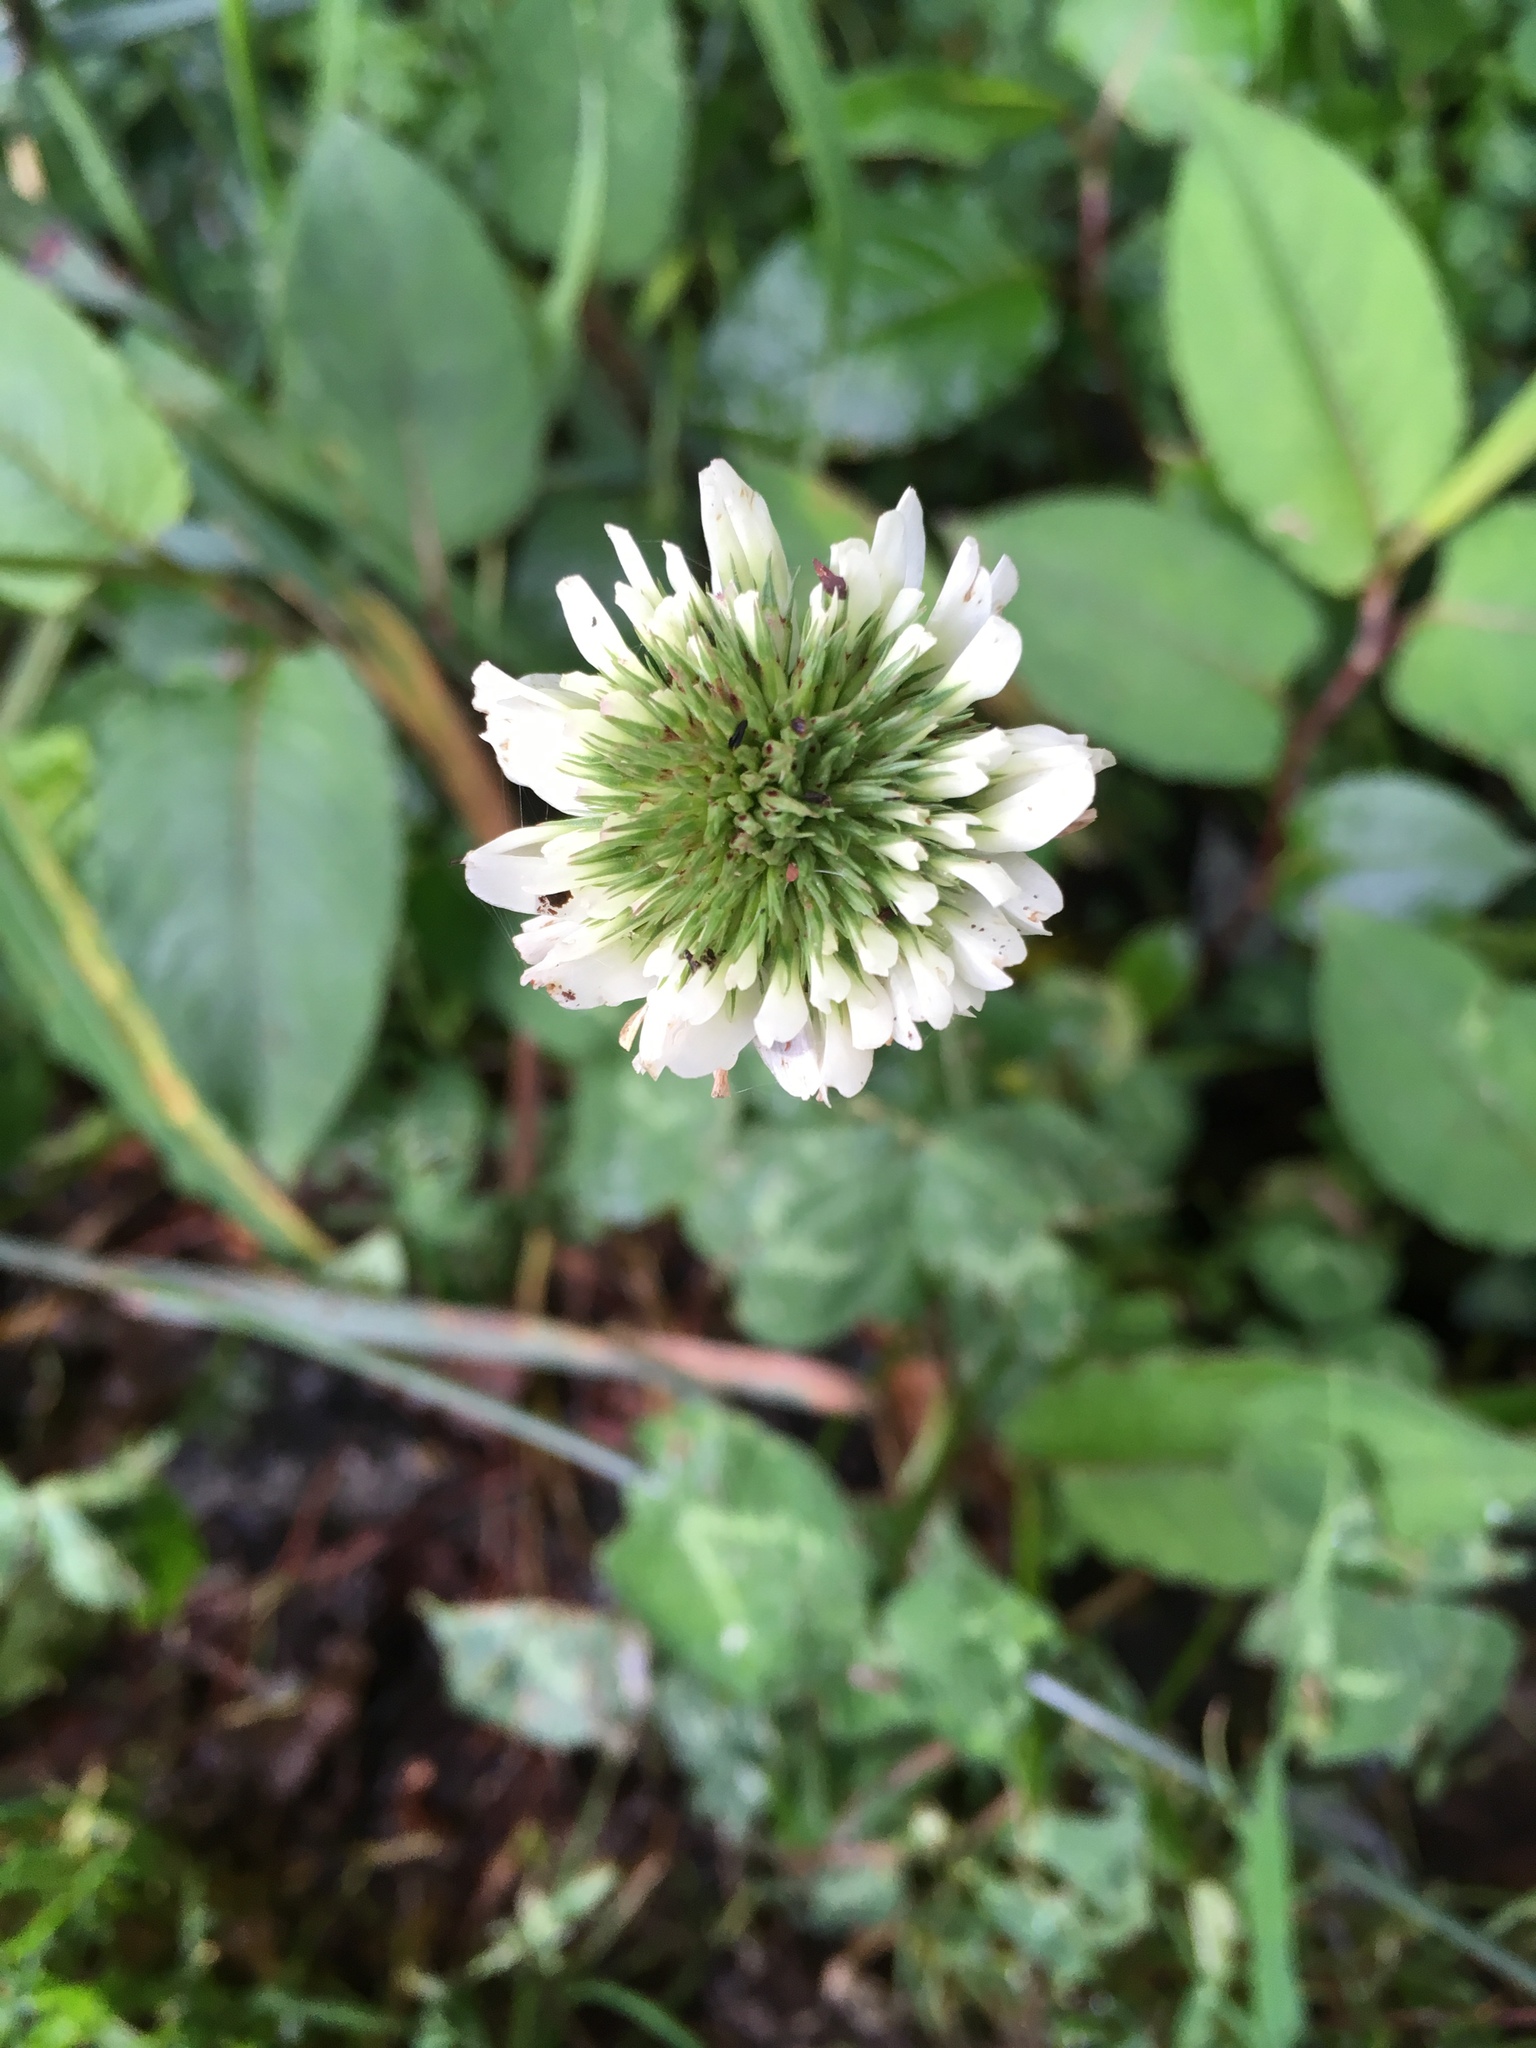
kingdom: Plantae
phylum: Tracheophyta
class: Magnoliopsida
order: Fabales
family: Fabaceae
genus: Trifolium
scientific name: Trifolium repens
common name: White clover
